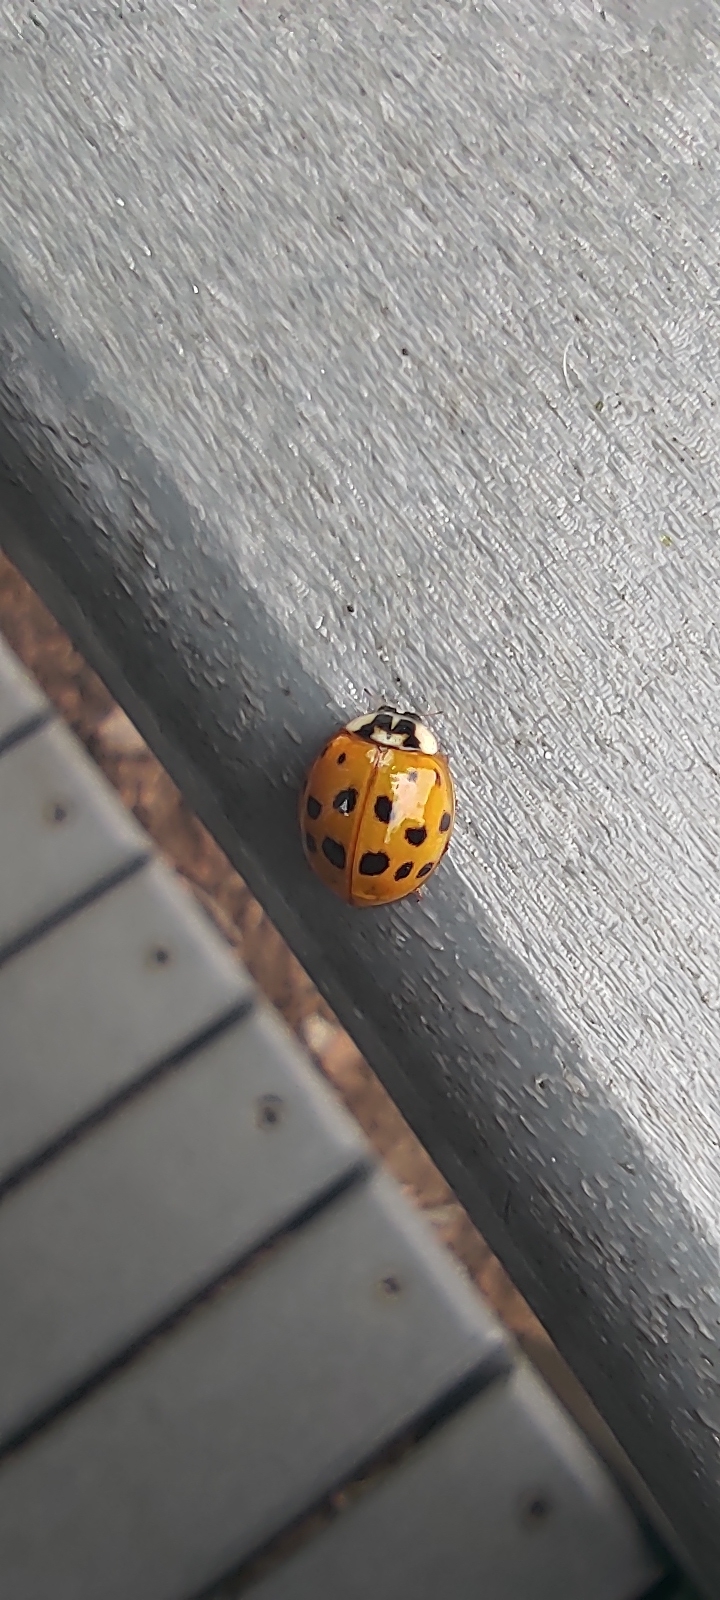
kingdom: Animalia
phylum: Arthropoda
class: Insecta
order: Coleoptera
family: Coccinellidae
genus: Harmonia
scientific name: Harmonia axyridis
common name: Harlequin ladybird
